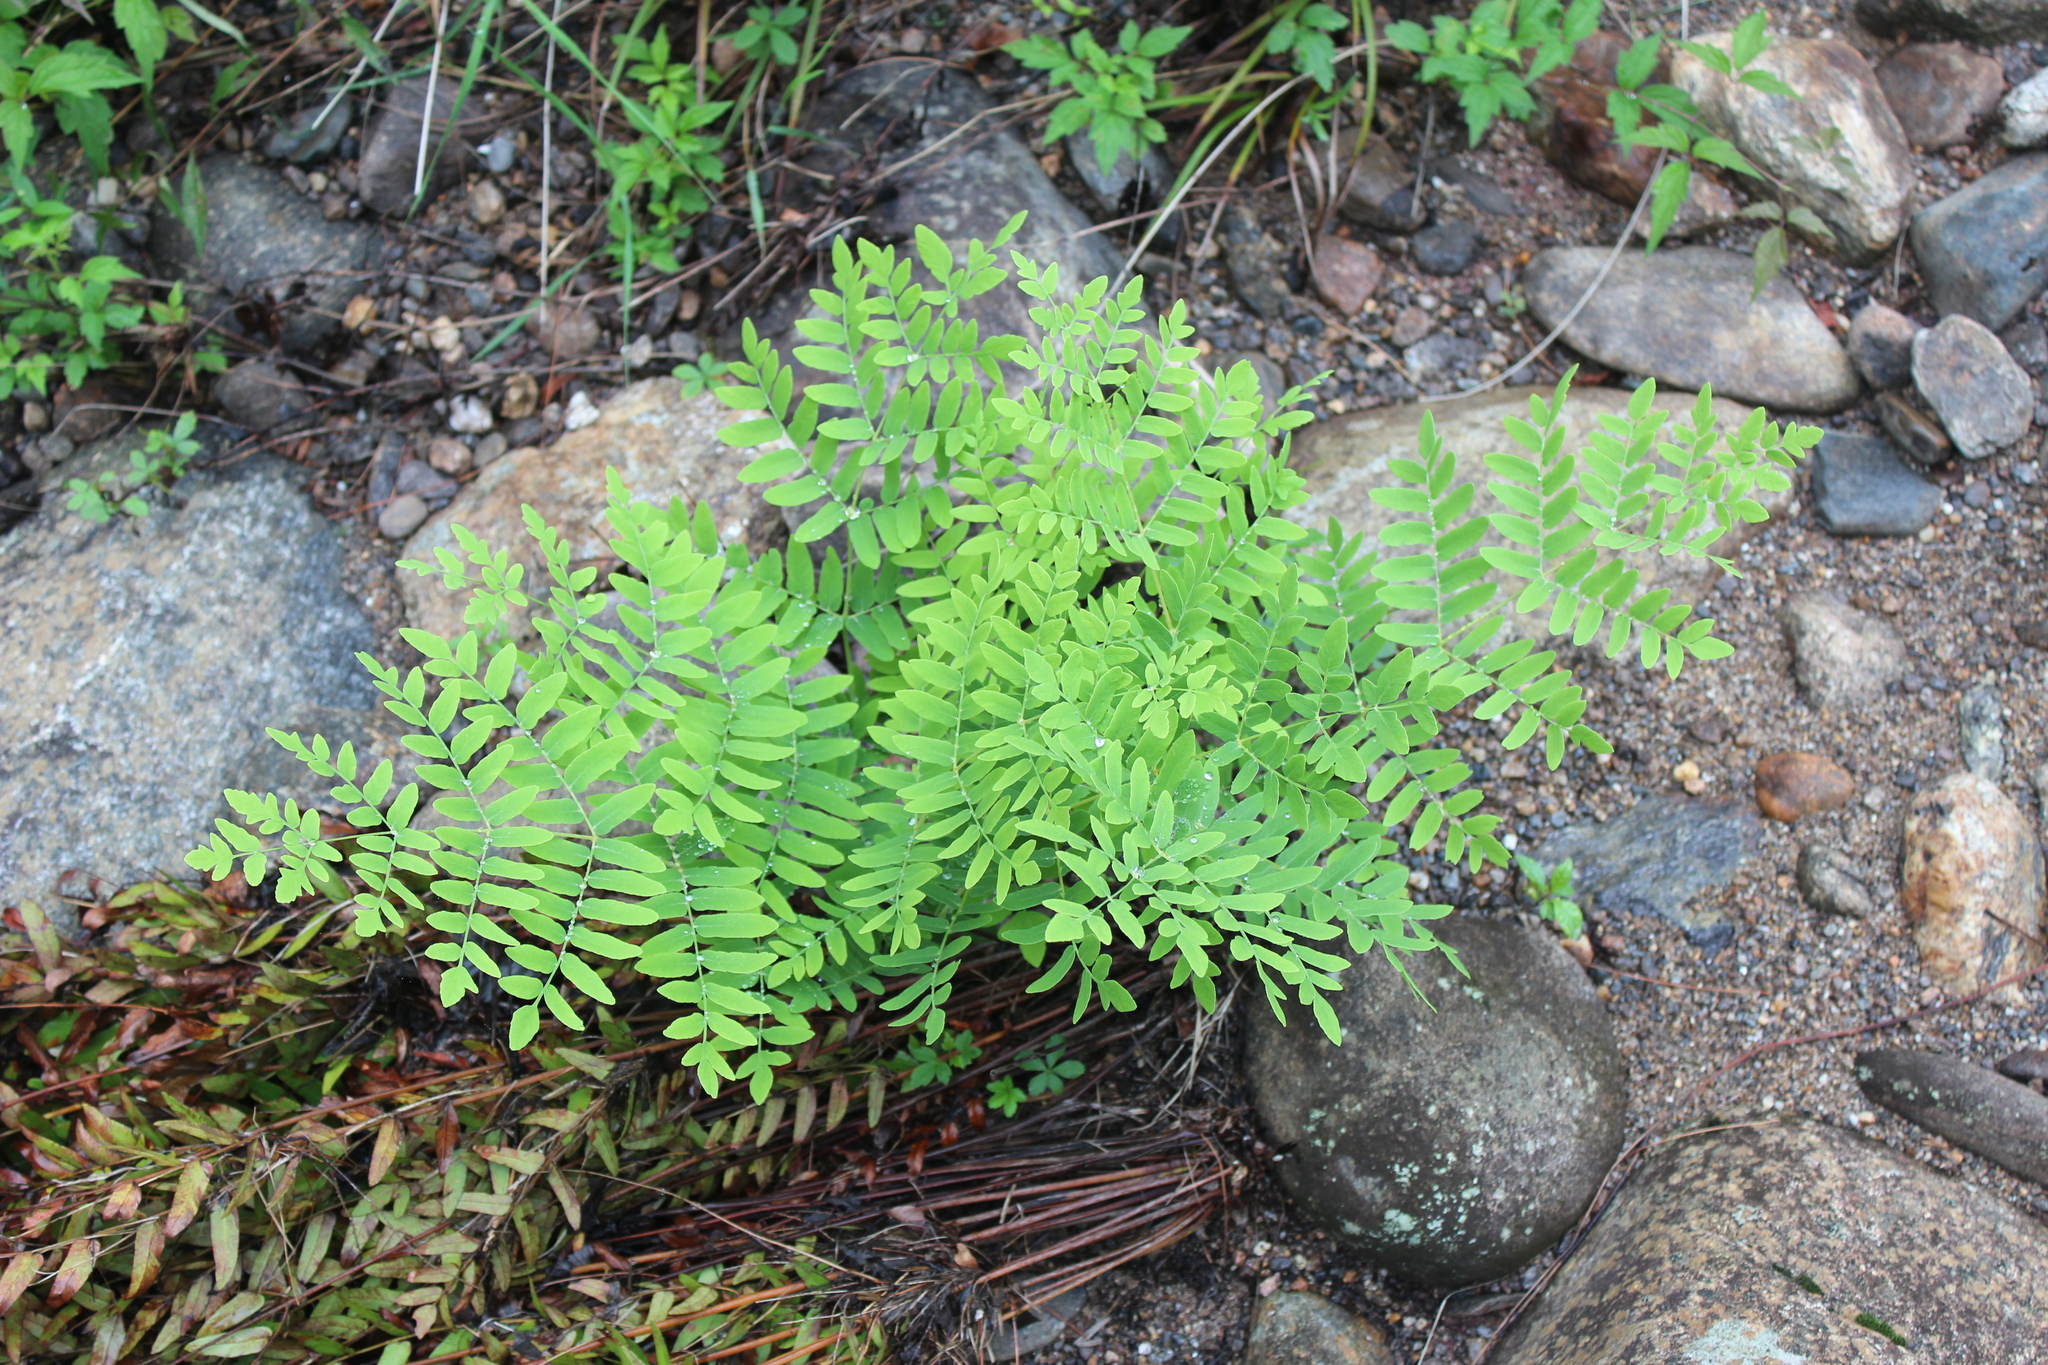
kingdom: Plantae
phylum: Tracheophyta
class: Polypodiopsida
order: Osmundales
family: Osmundaceae
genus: Osmunda
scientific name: Osmunda spectabilis
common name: American royal fern
